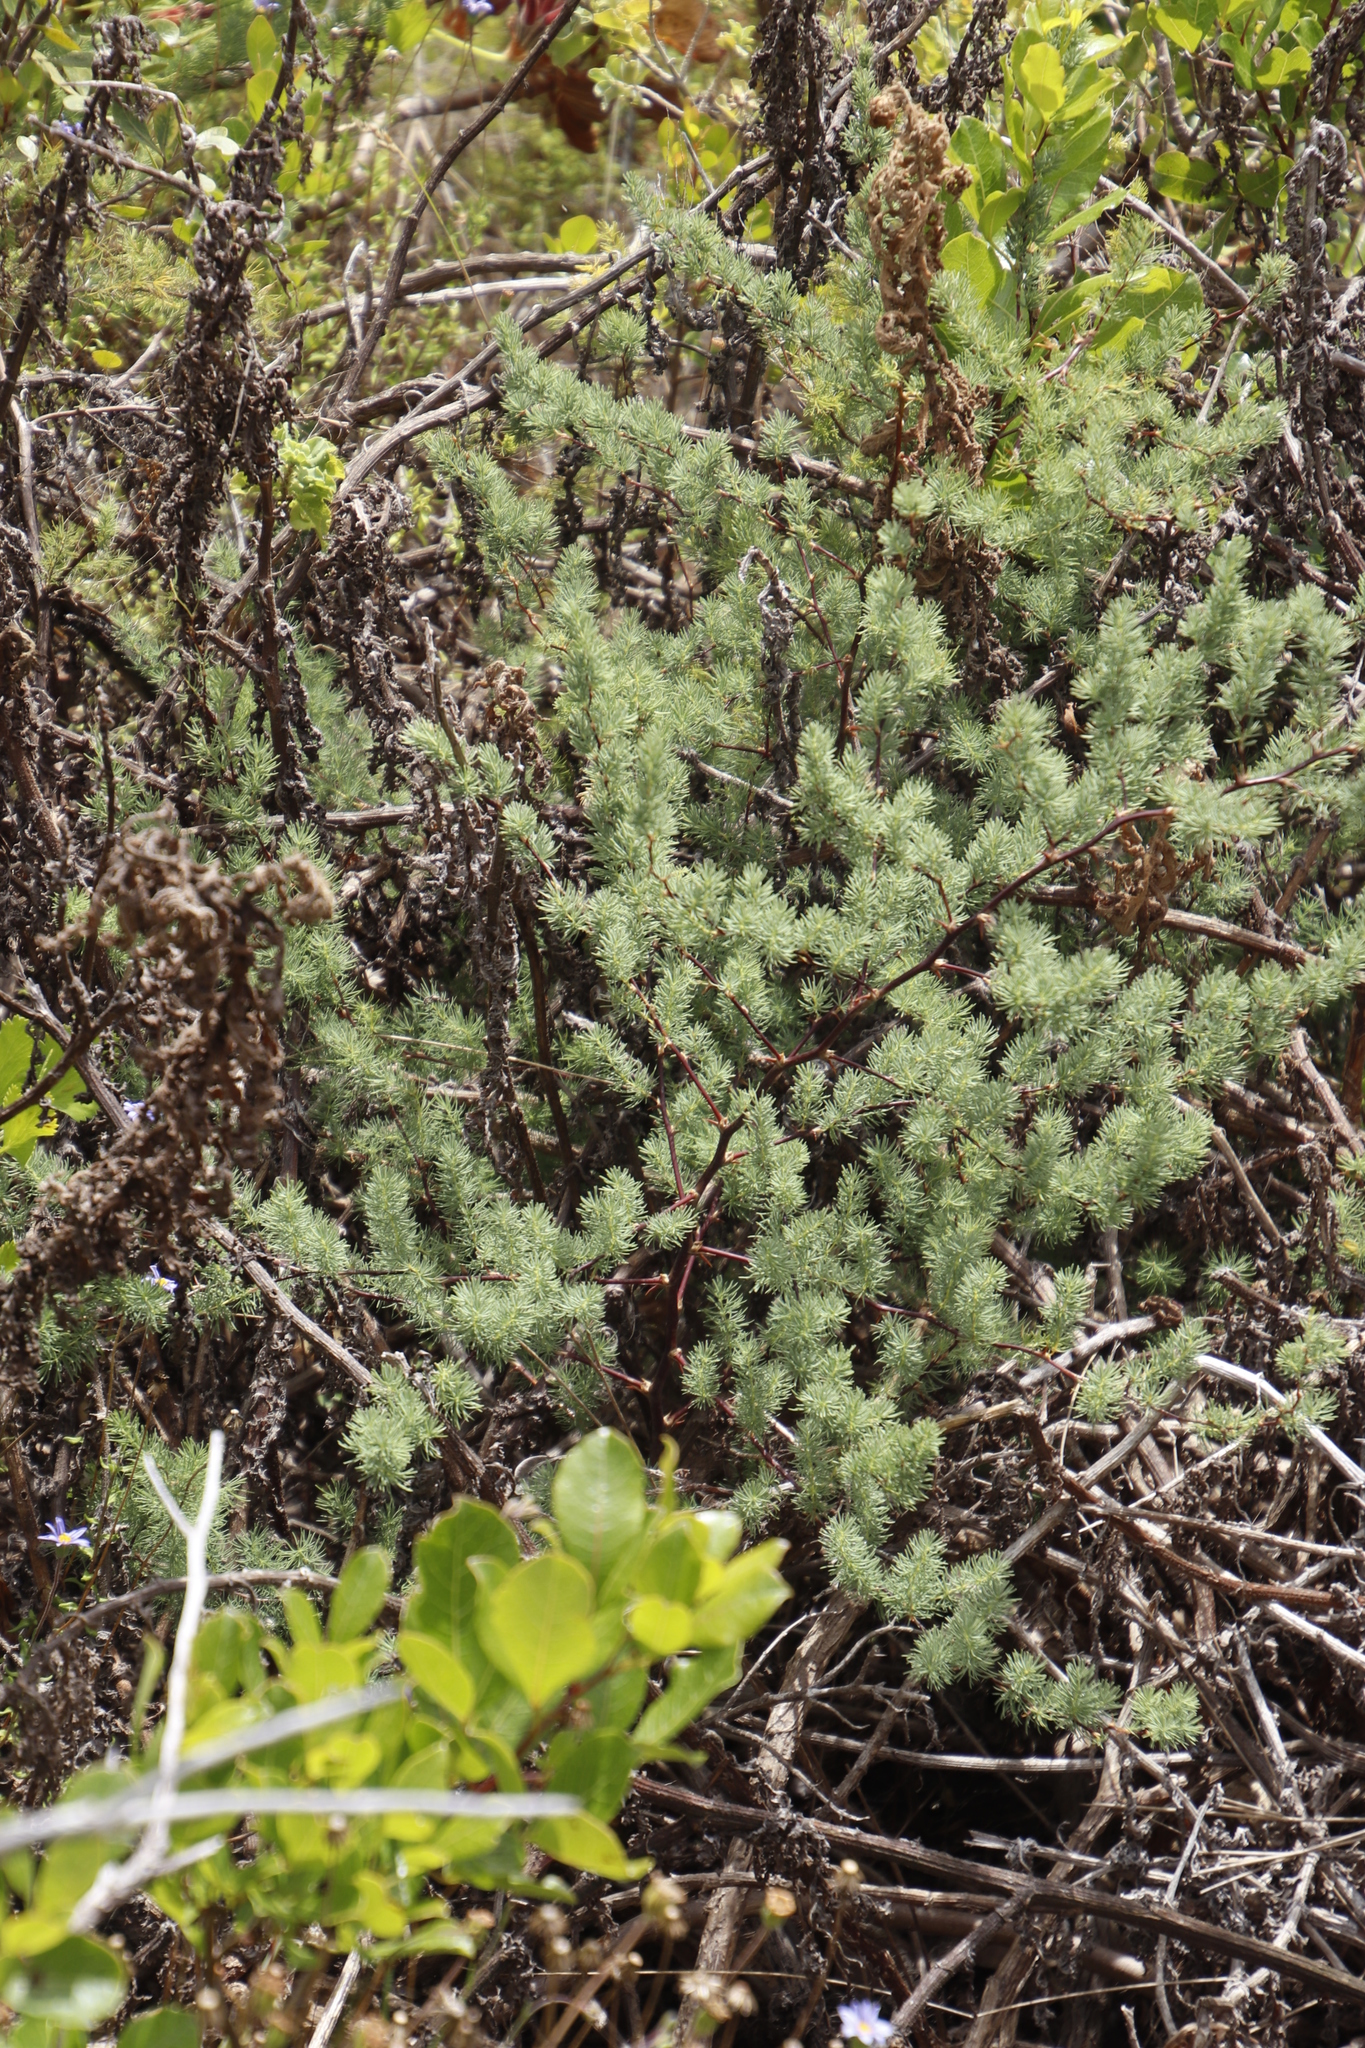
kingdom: Plantae
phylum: Tracheophyta
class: Liliopsida
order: Asparagales
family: Asparagaceae
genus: Asparagus
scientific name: Asparagus rubicundus
